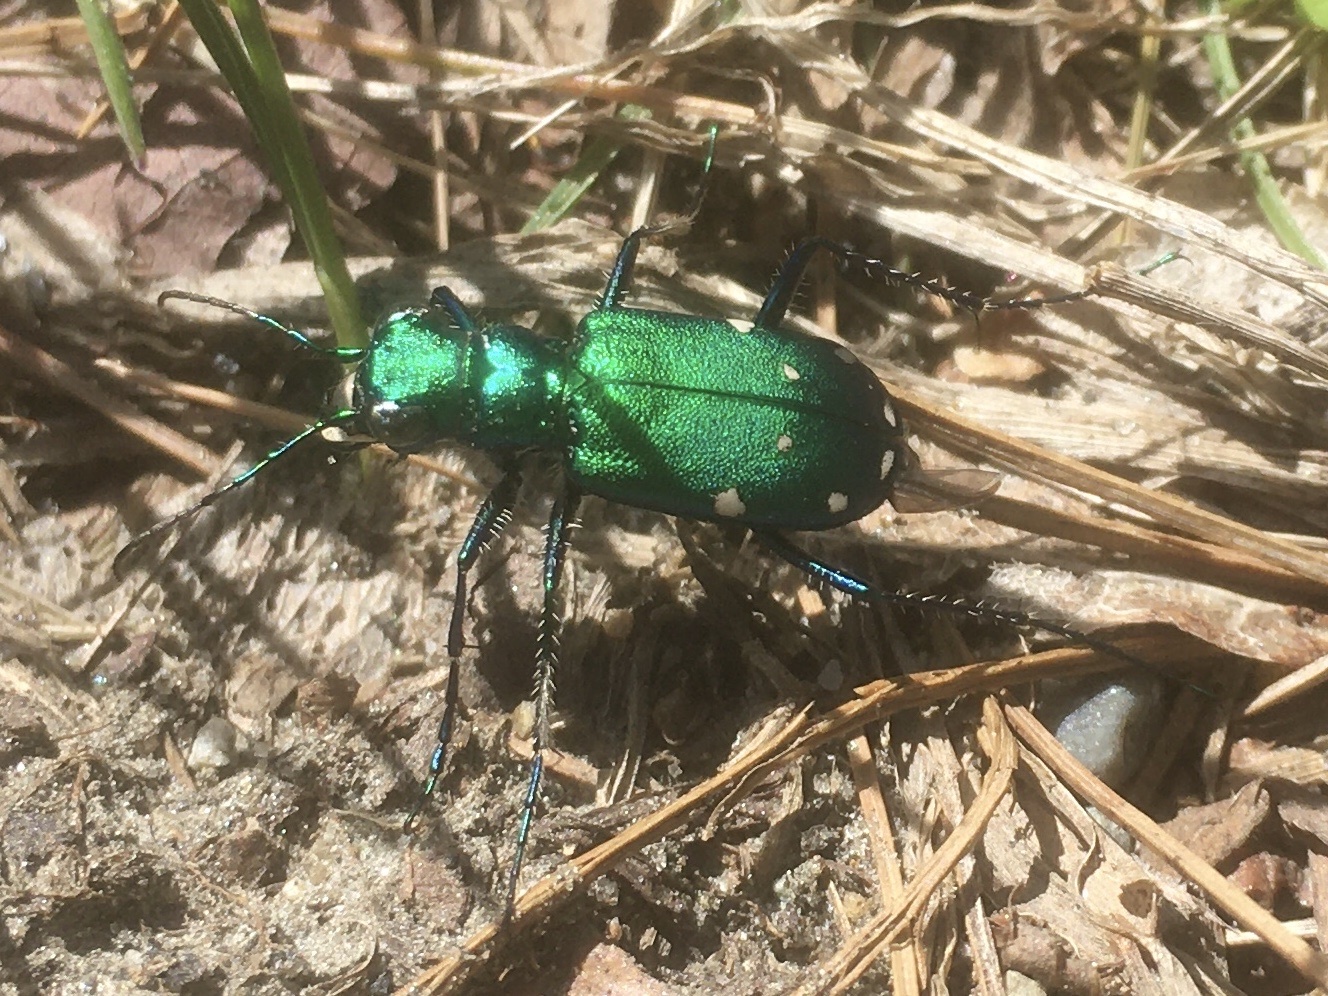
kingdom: Animalia
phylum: Arthropoda
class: Insecta
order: Coleoptera
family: Carabidae
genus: Cicindela
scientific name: Cicindela sexguttata
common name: Six-spotted tiger beetle
